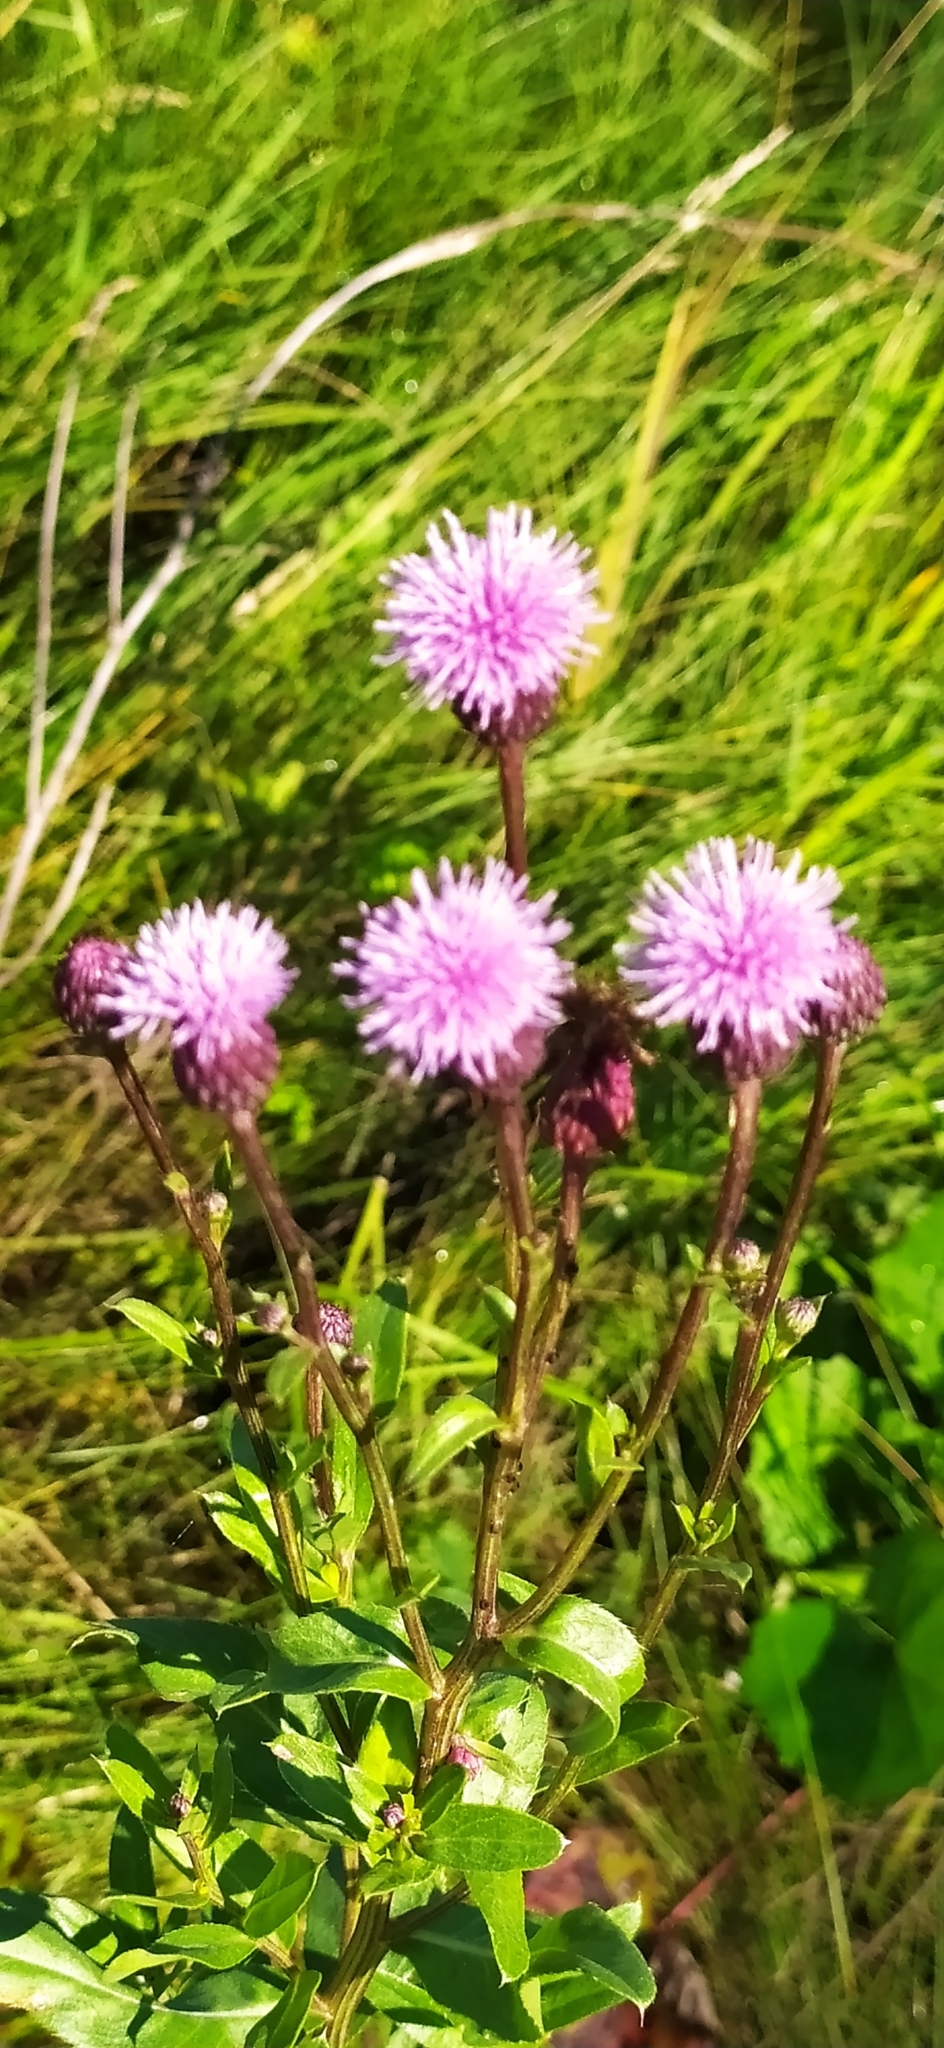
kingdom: Plantae
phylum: Tracheophyta
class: Magnoliopsida
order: Asterales
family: Asteraceae
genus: Cirsium
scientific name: Cirsium arvense
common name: Creeping thistle
